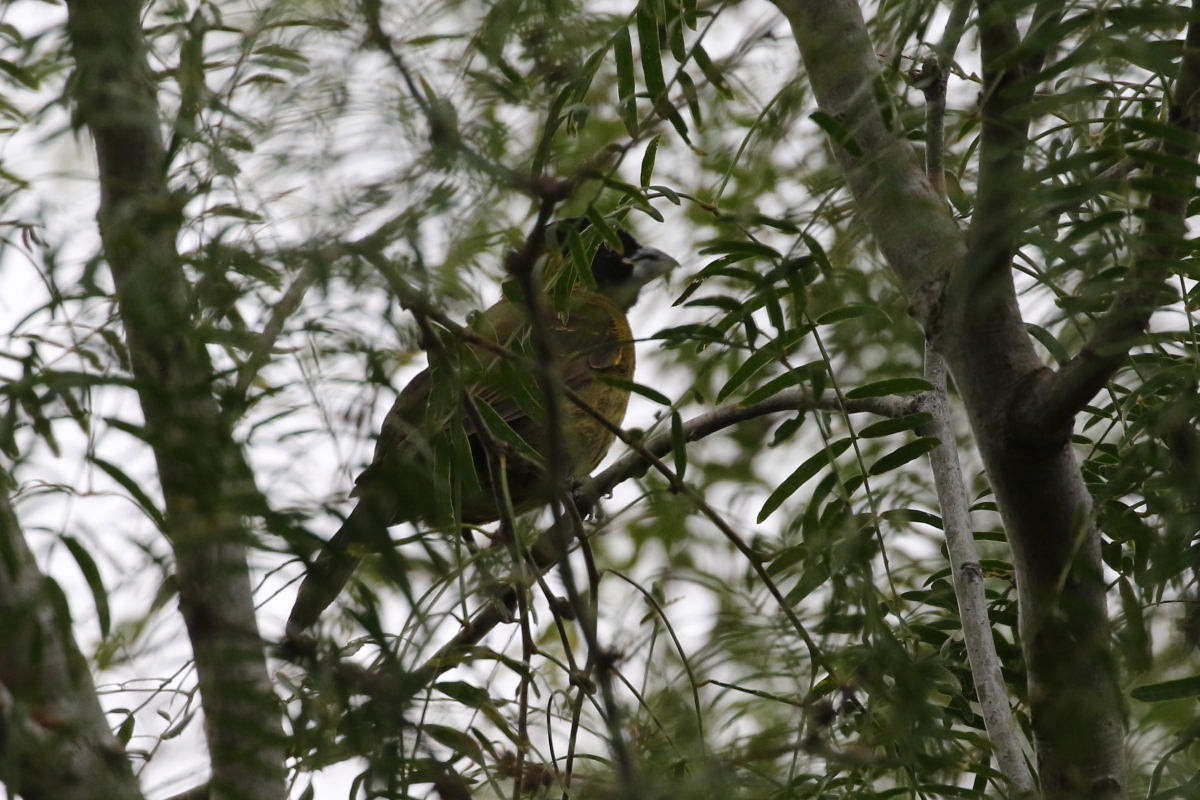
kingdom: Animalia
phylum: Chordata
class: Aves
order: Passeriformes
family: Cardinalidae
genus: Rhodothraupis
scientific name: Rhodothraupis celaeno
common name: Crimson-collared grosbeak
